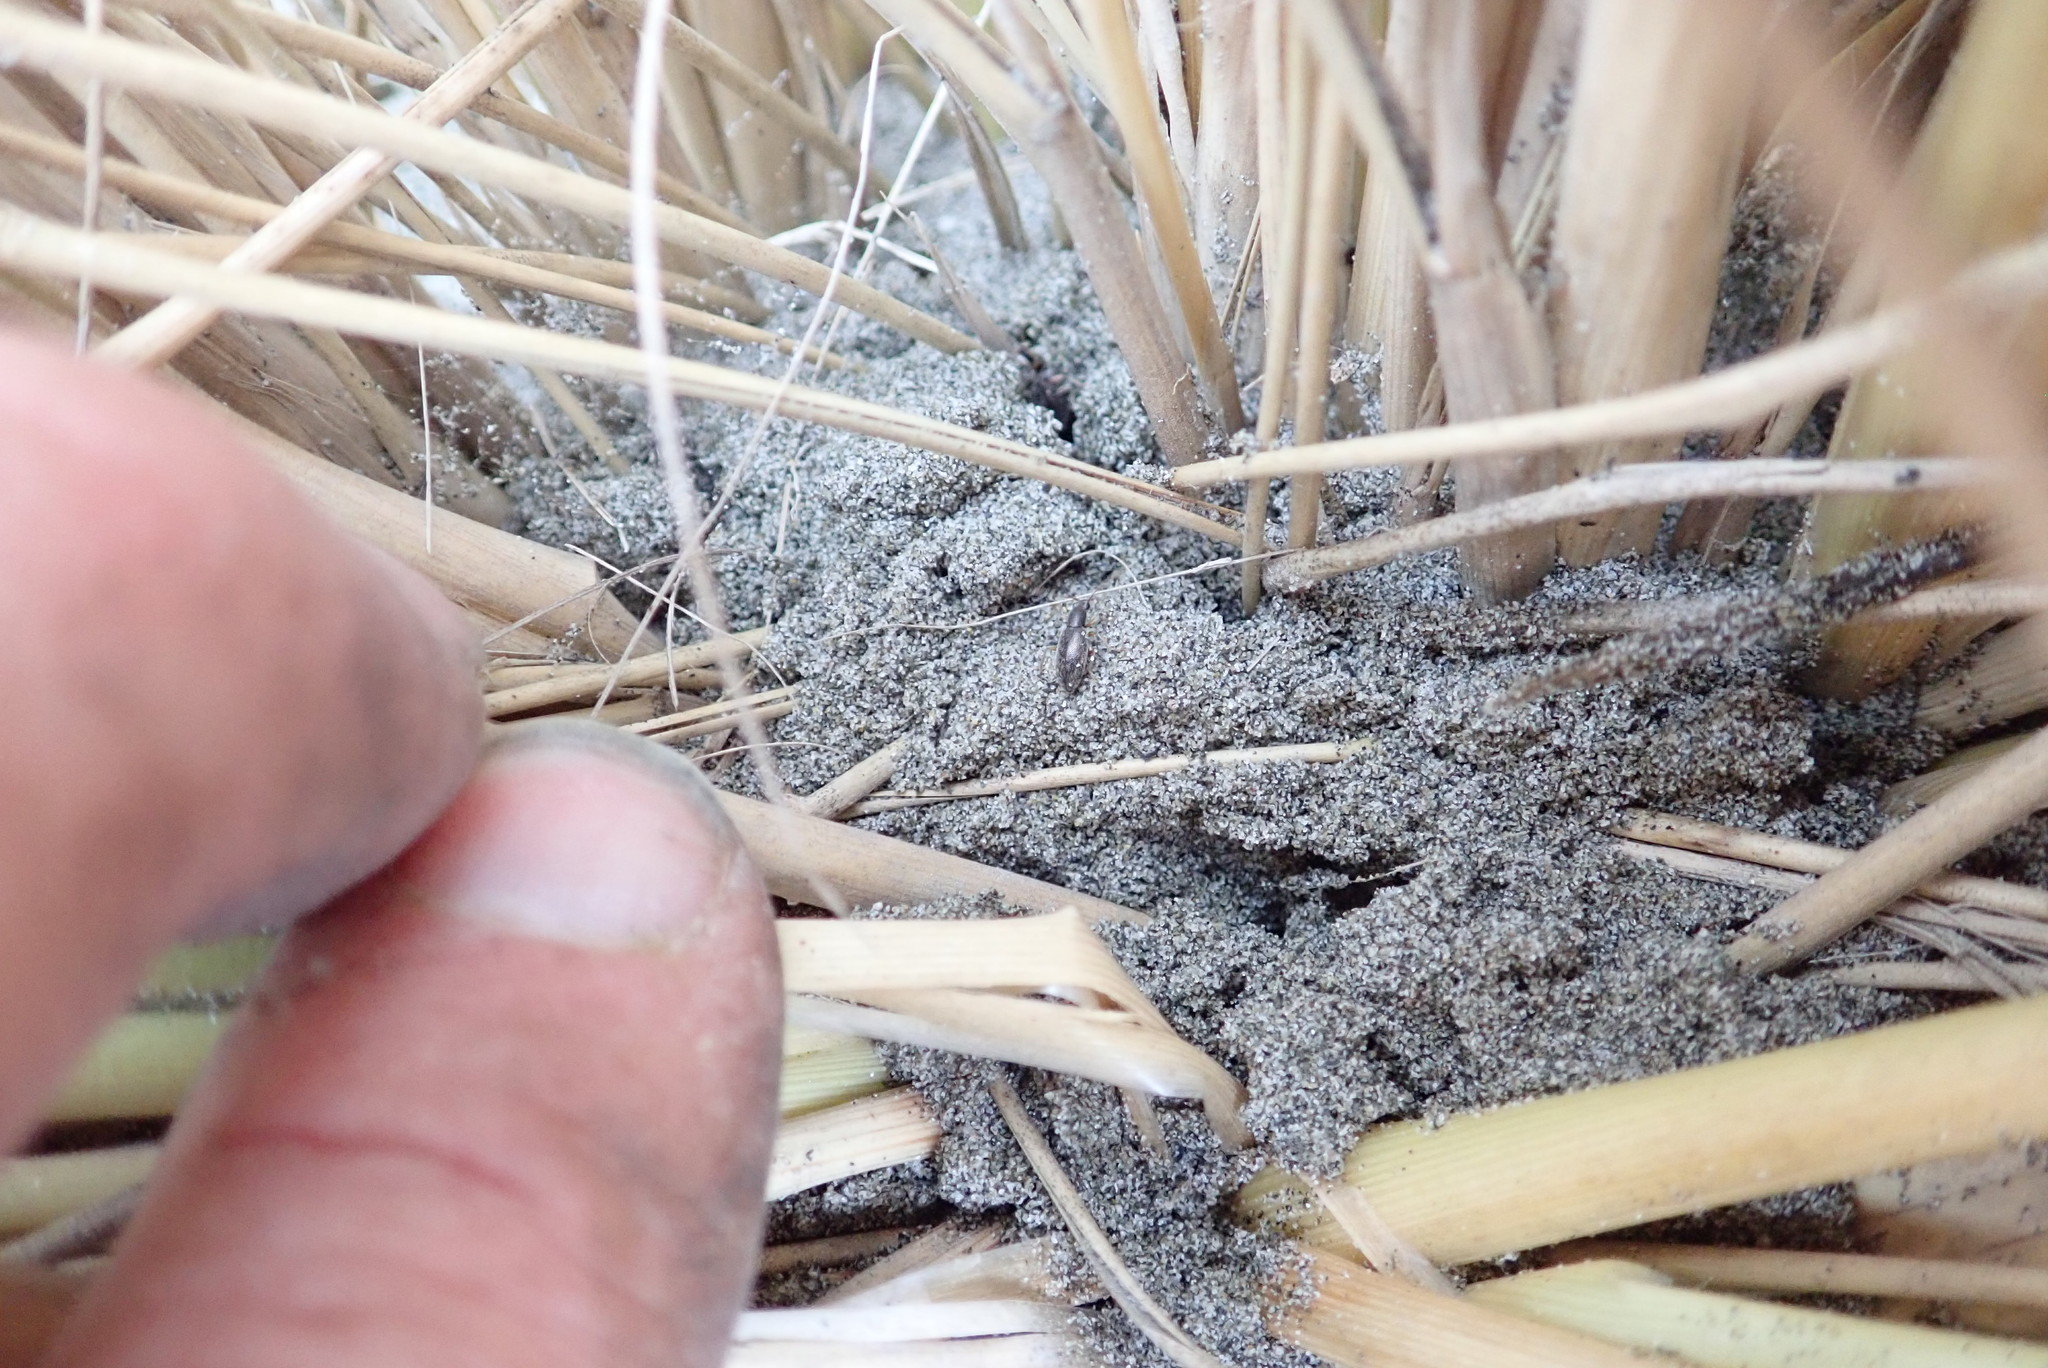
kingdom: Animalia
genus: Lagrioda
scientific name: Lagrioda brounii
